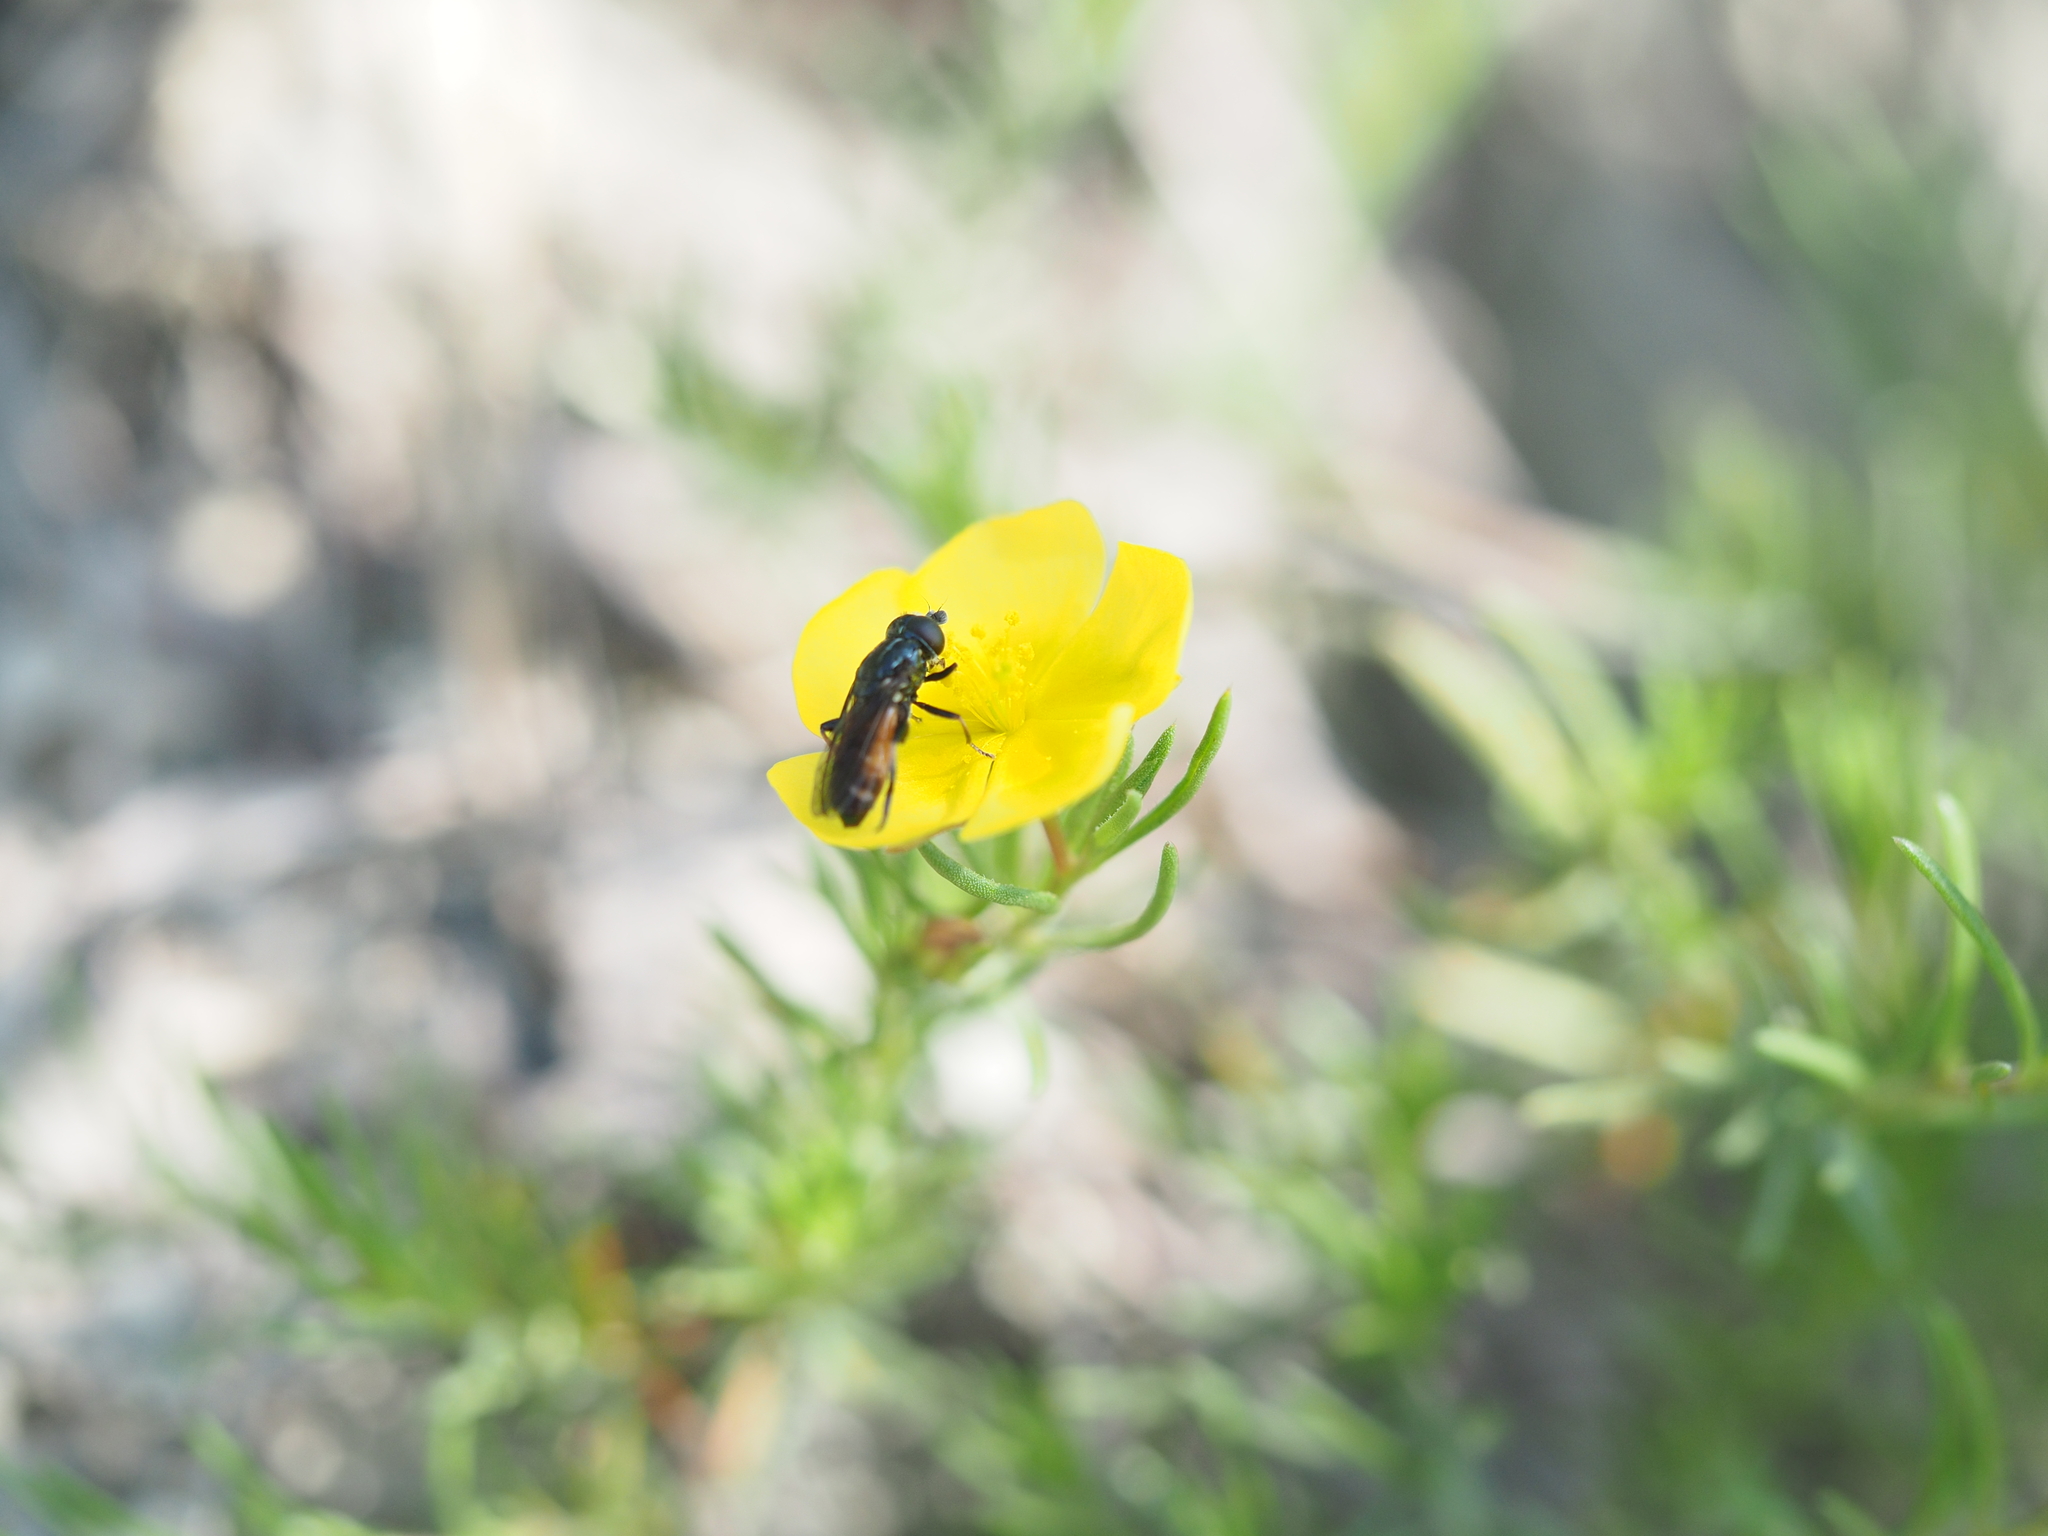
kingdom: Plantae
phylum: Tracheophyta
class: Magnoliopsida
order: Malvales
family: Cistaceae
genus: Fumana
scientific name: Fumana procumbens
